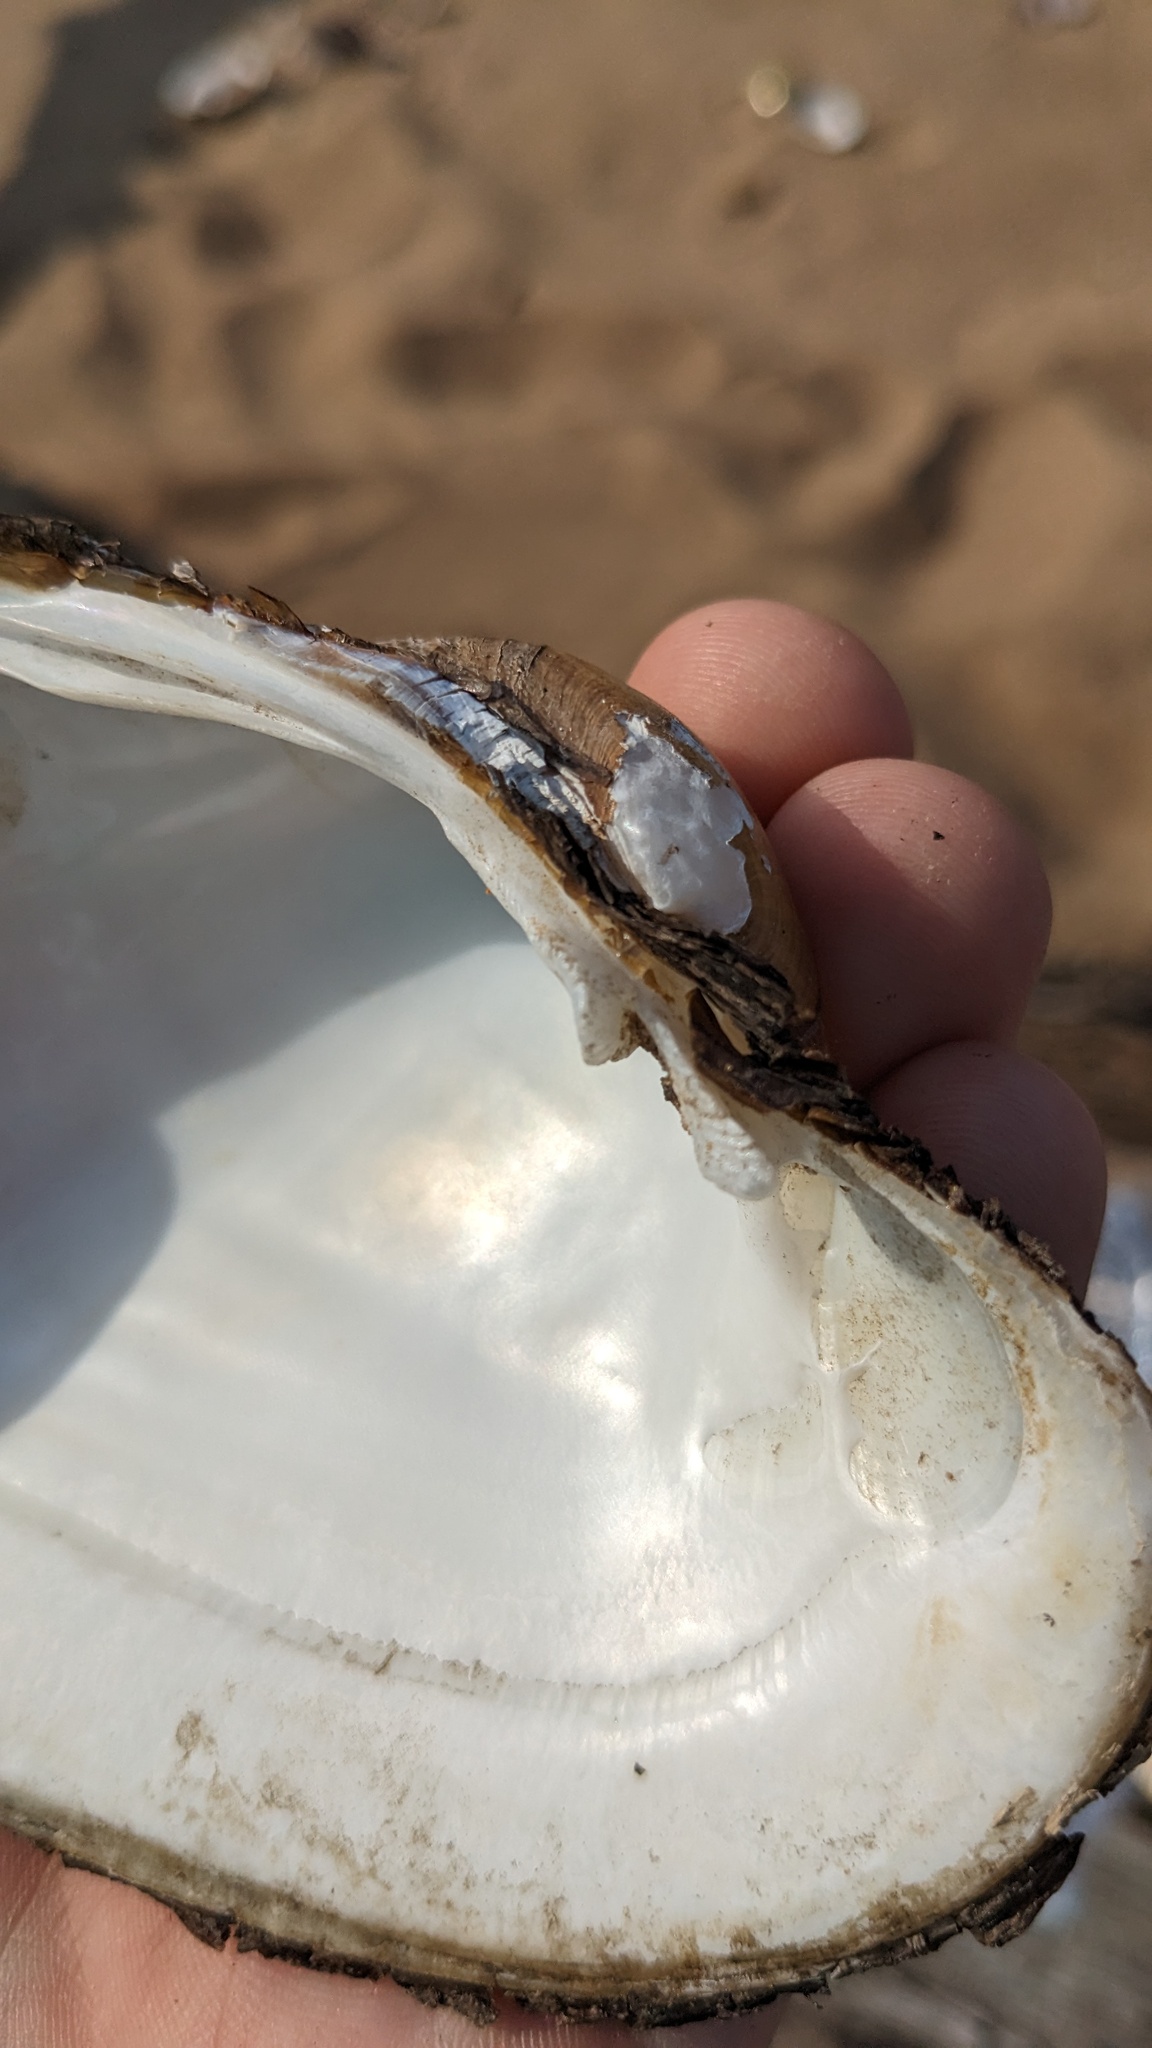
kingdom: Animalia
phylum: Mollusca
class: Bivalvia
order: Unionida
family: Unionidae
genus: Lampsilis
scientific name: Lampsilis cardium
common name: Plain pocketbook
